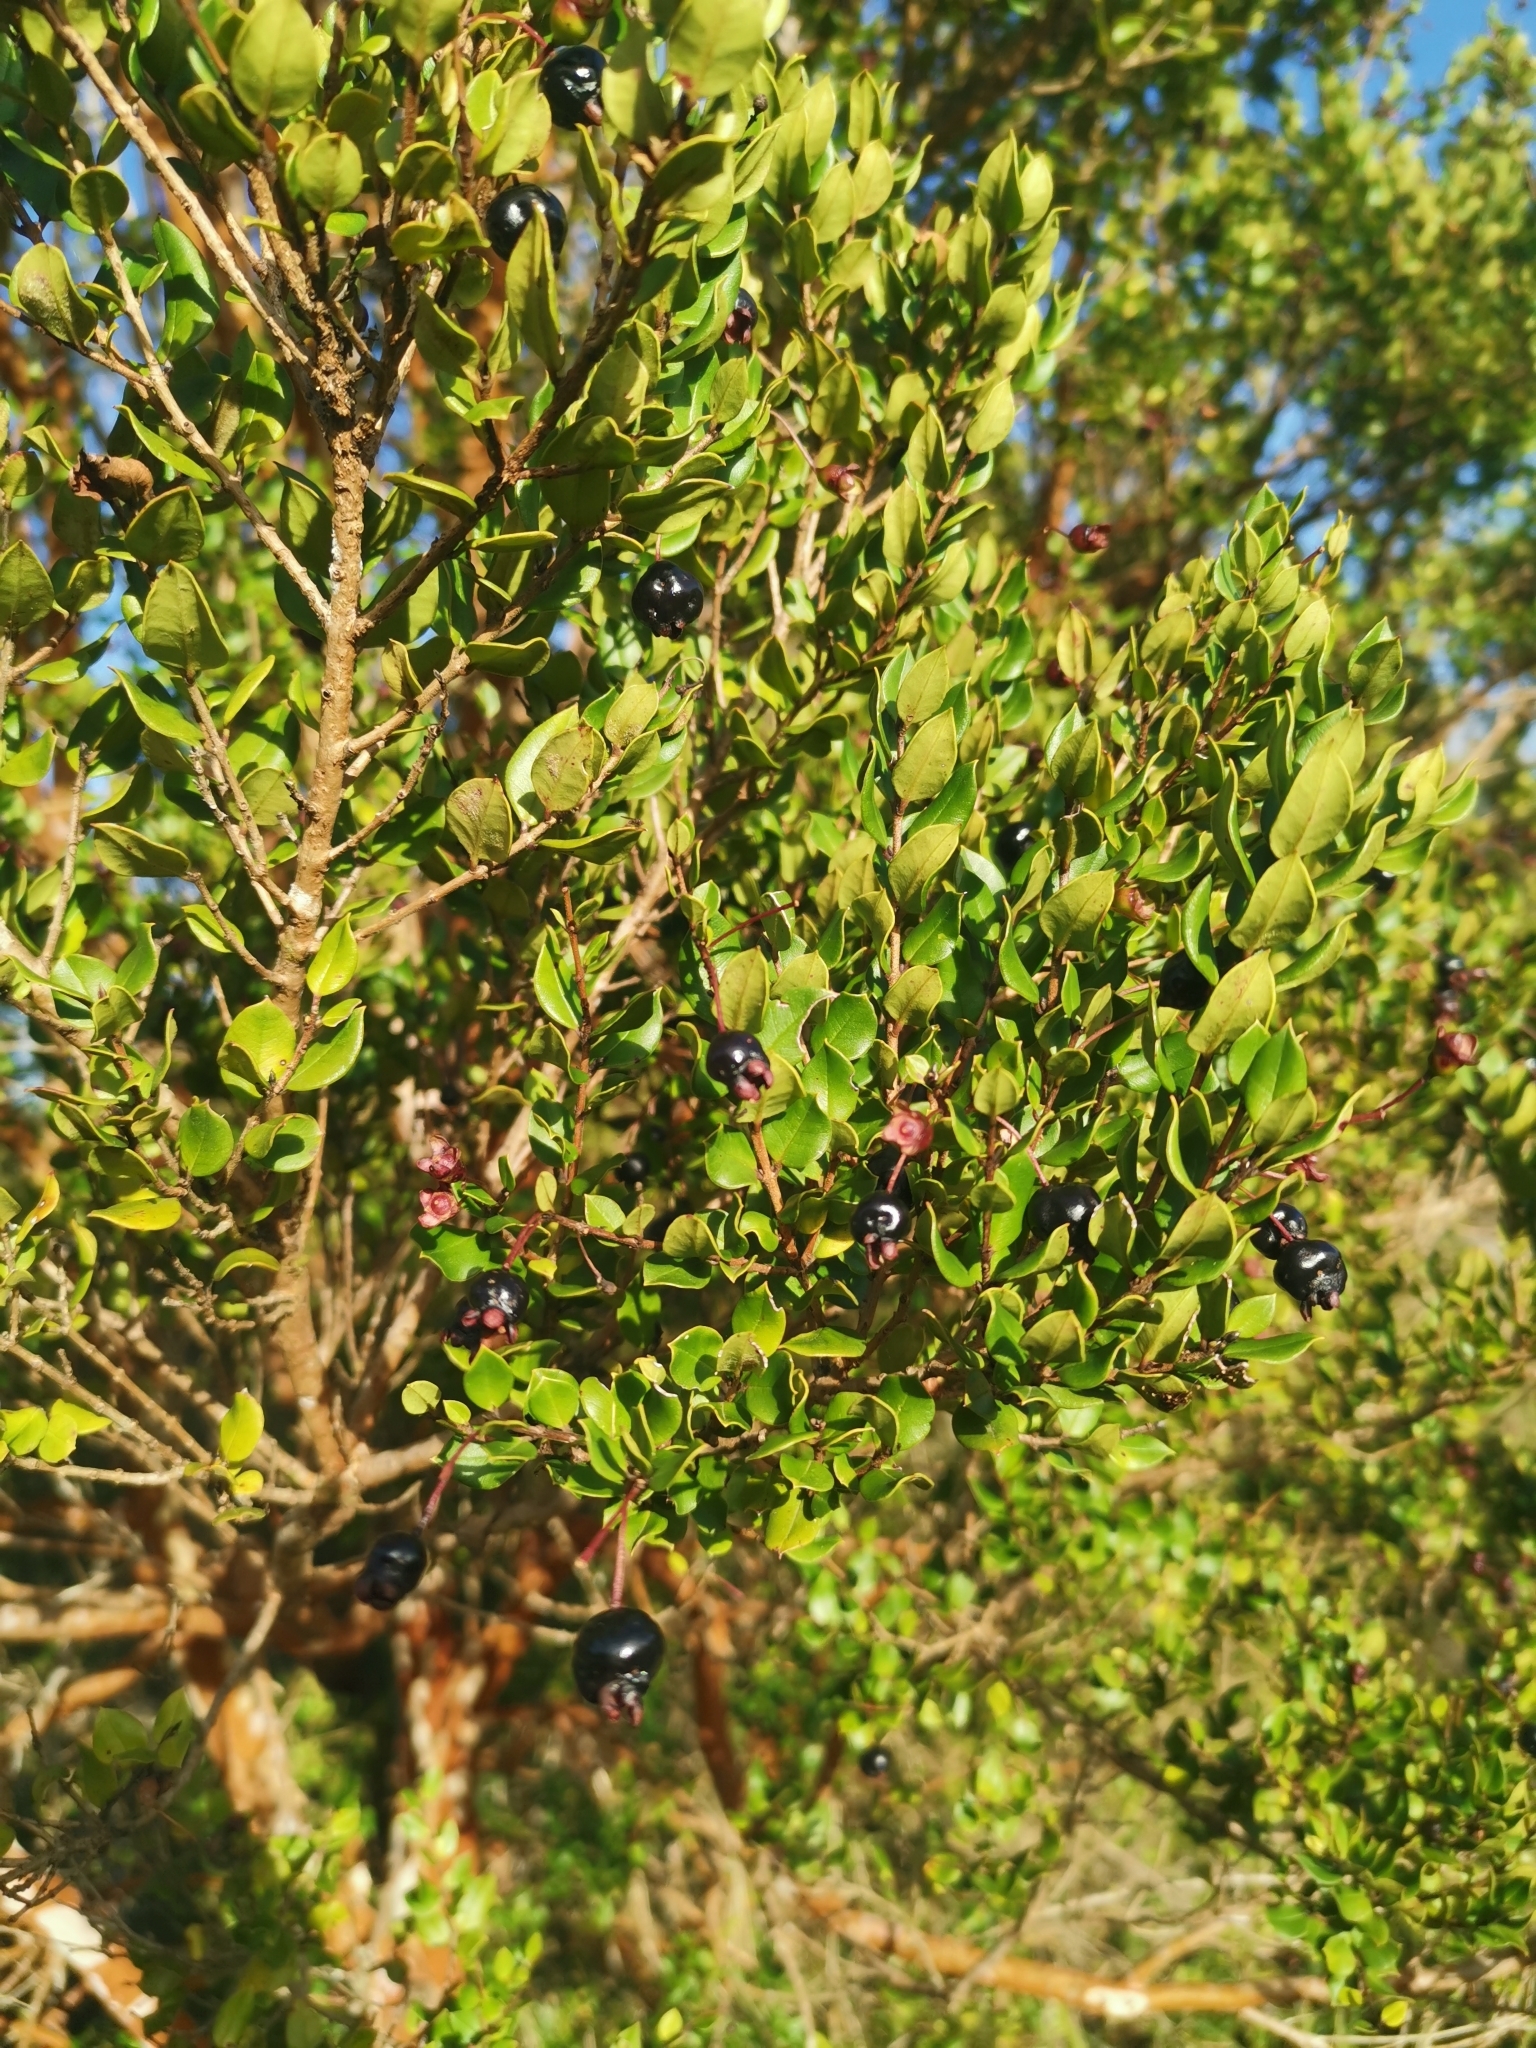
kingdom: Plantae
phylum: Tracheophyta
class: Magnoliopsida
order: Myrtales
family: Myrtaceae
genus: Luma
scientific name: Luma apiculata
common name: Chilean myrtle
